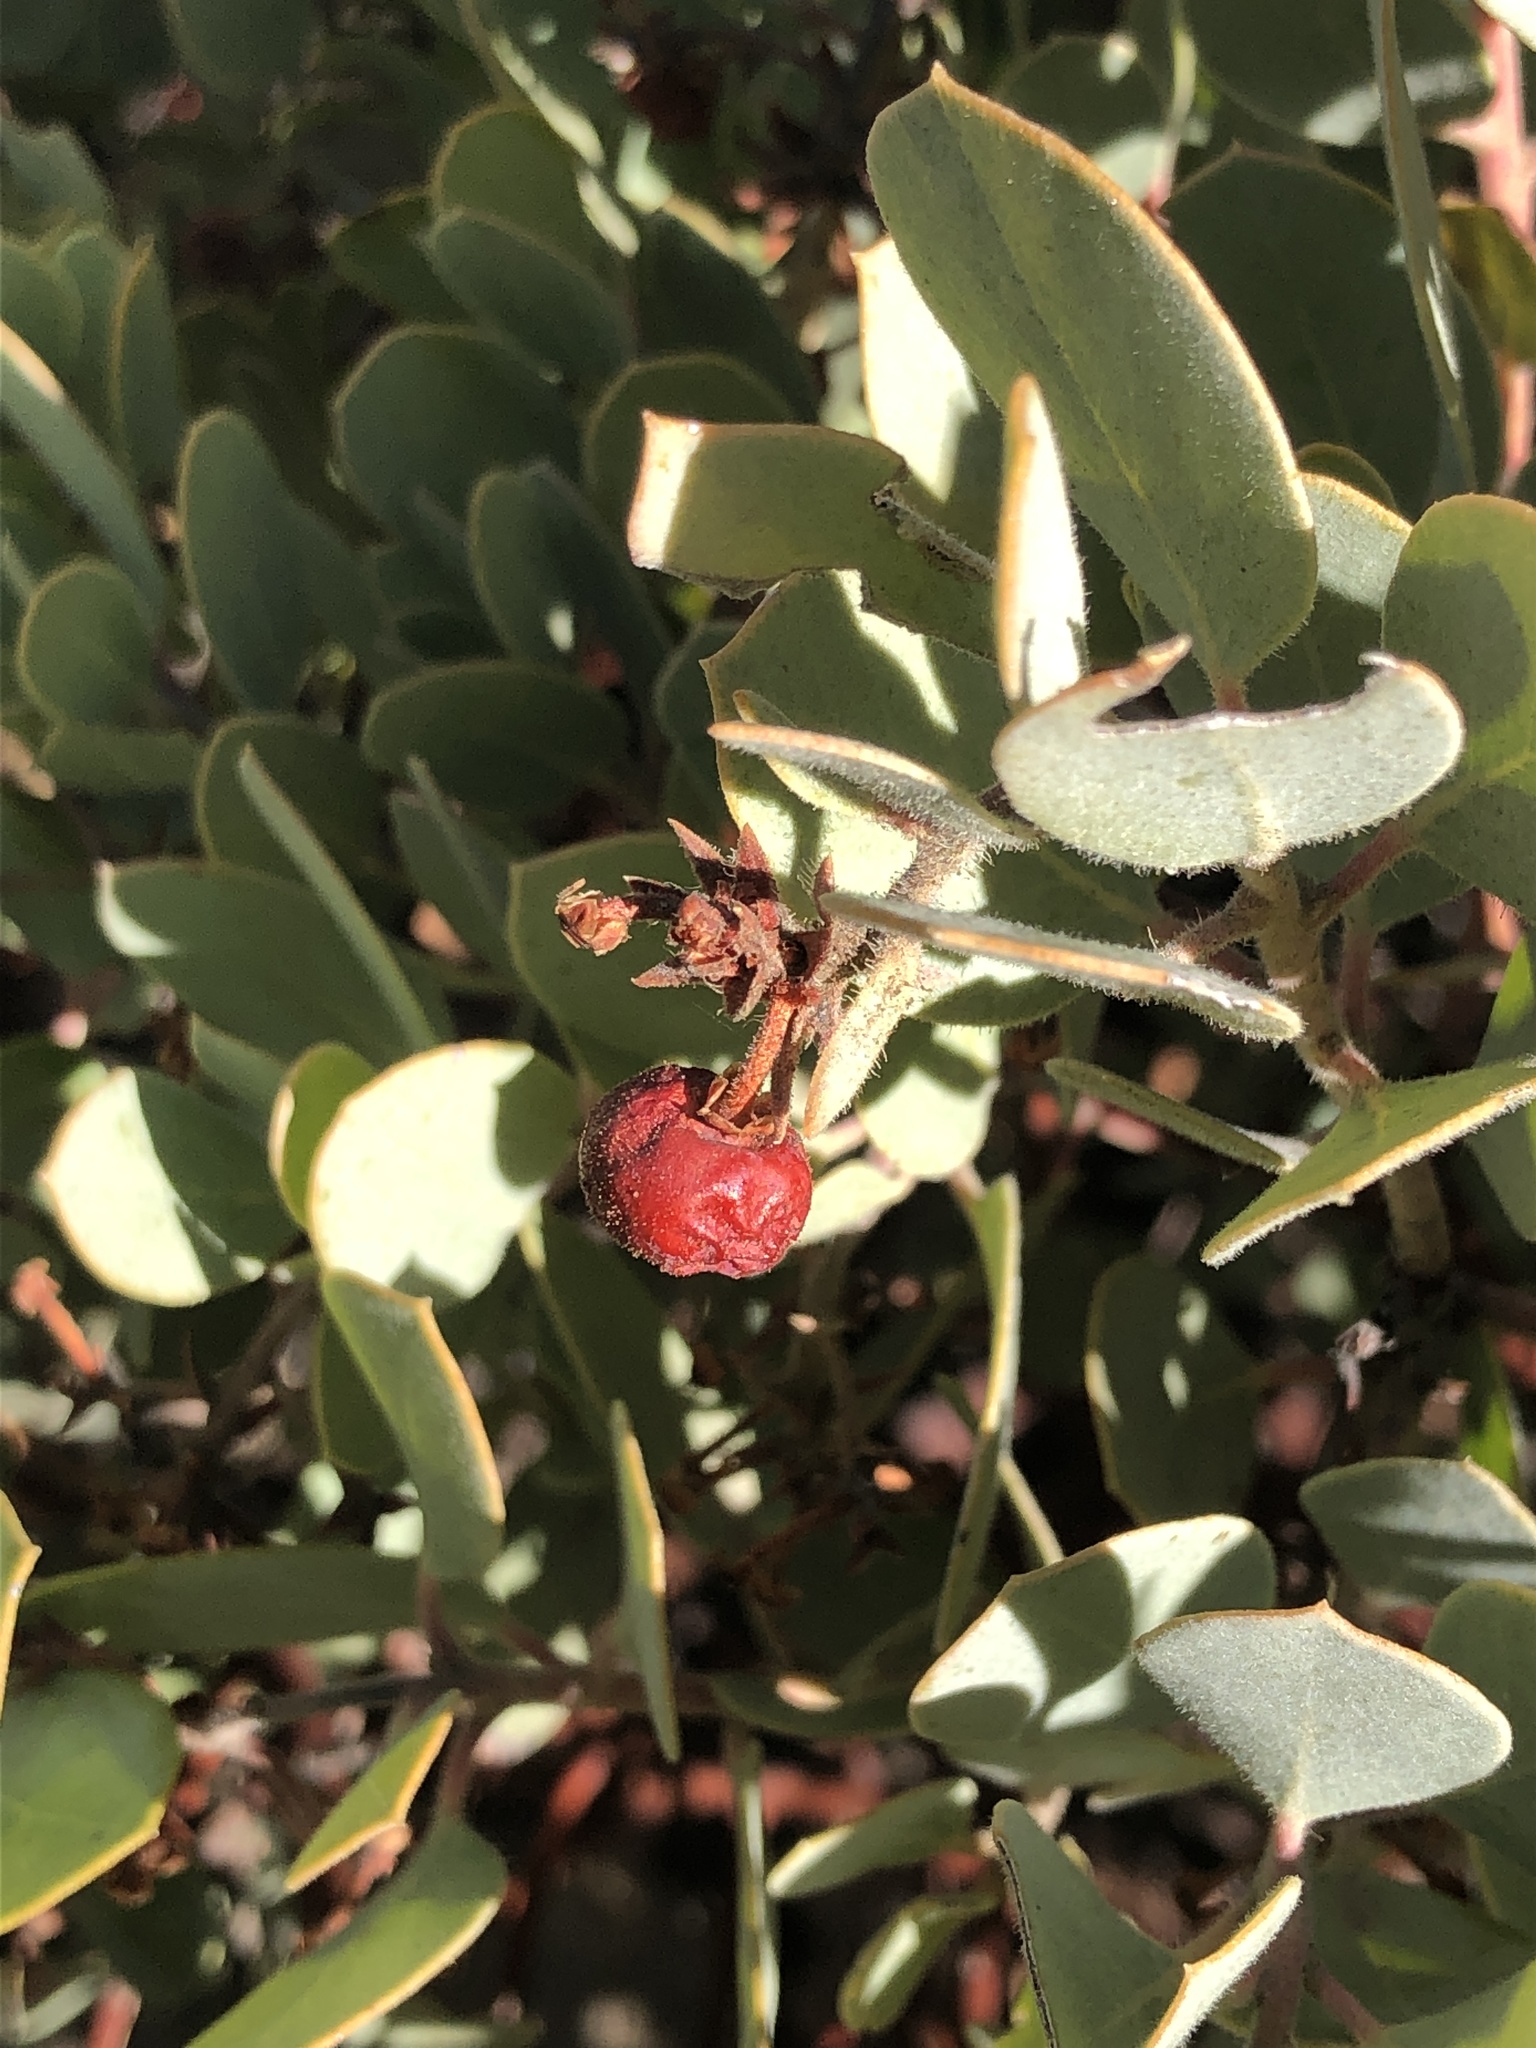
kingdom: Plantae
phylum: Tracheophyta
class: Magnoliopsida
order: Ericales
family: Ericaceae
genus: Arctostaphylos
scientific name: Arctostaphylos glandulosa
